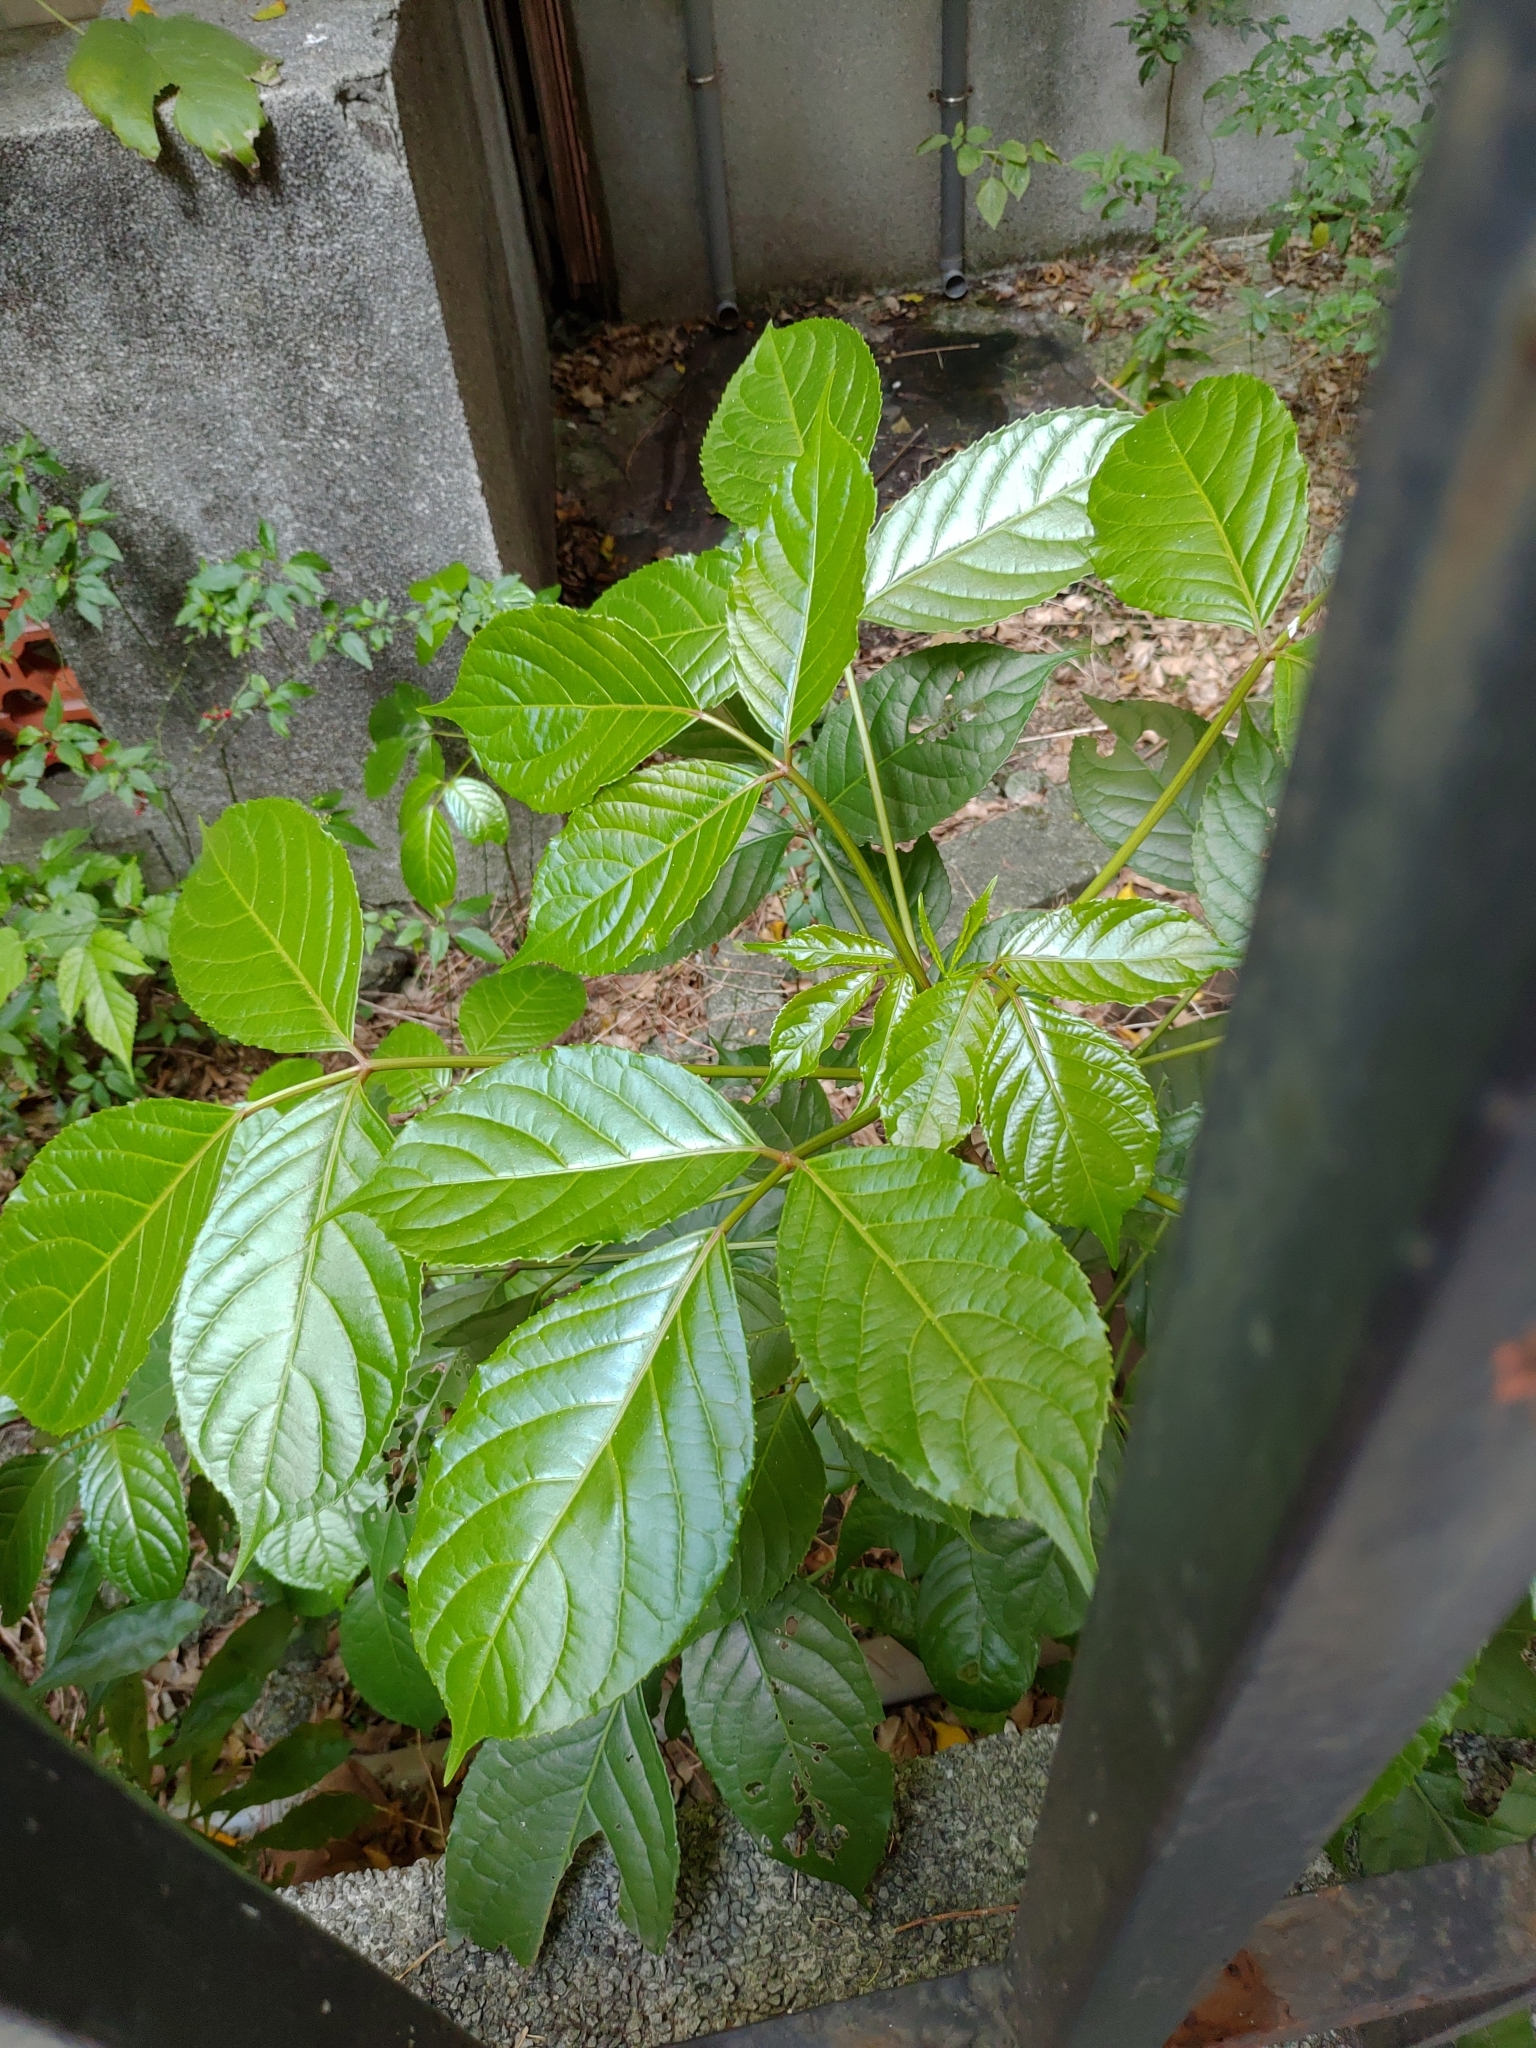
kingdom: Plantae
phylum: Tracheophyta
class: Magnoliopsida
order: Malpighiales
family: Phyllanthaceae
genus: Bischofia
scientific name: Bischofia javanica
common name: Javanese bishopwood
